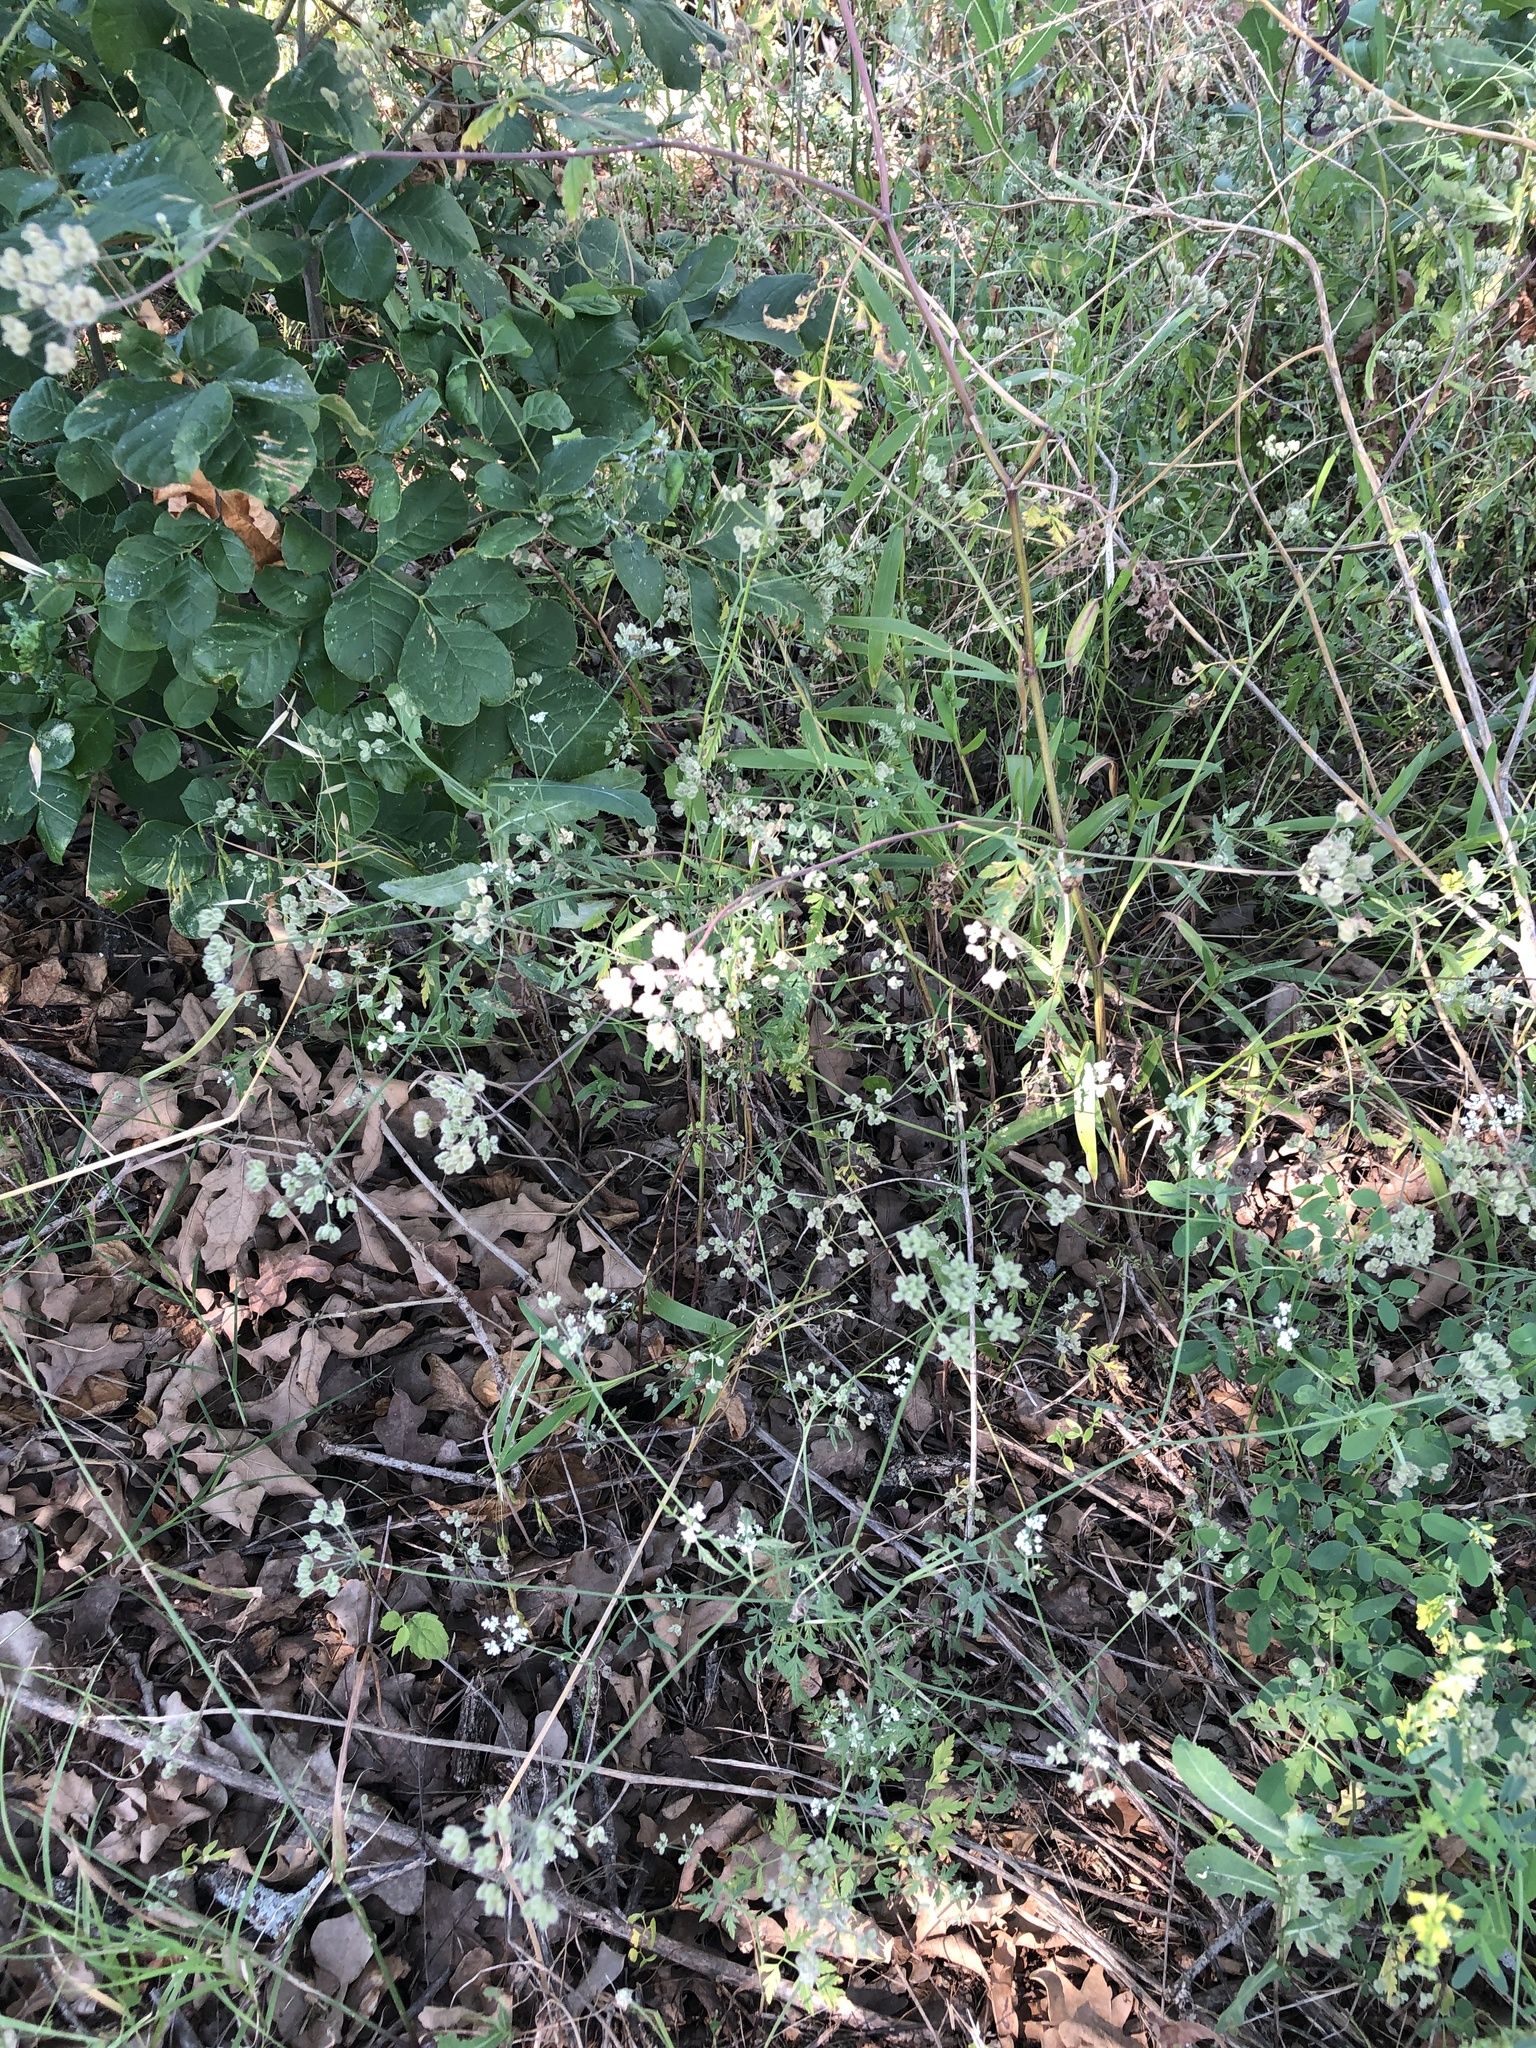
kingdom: Plantae
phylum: Tracheophyta
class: Magnoliopsida
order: Apiales
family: Apiaceae
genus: Torilis
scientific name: Torilis arvensis
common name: Spreading hedge-parsley
